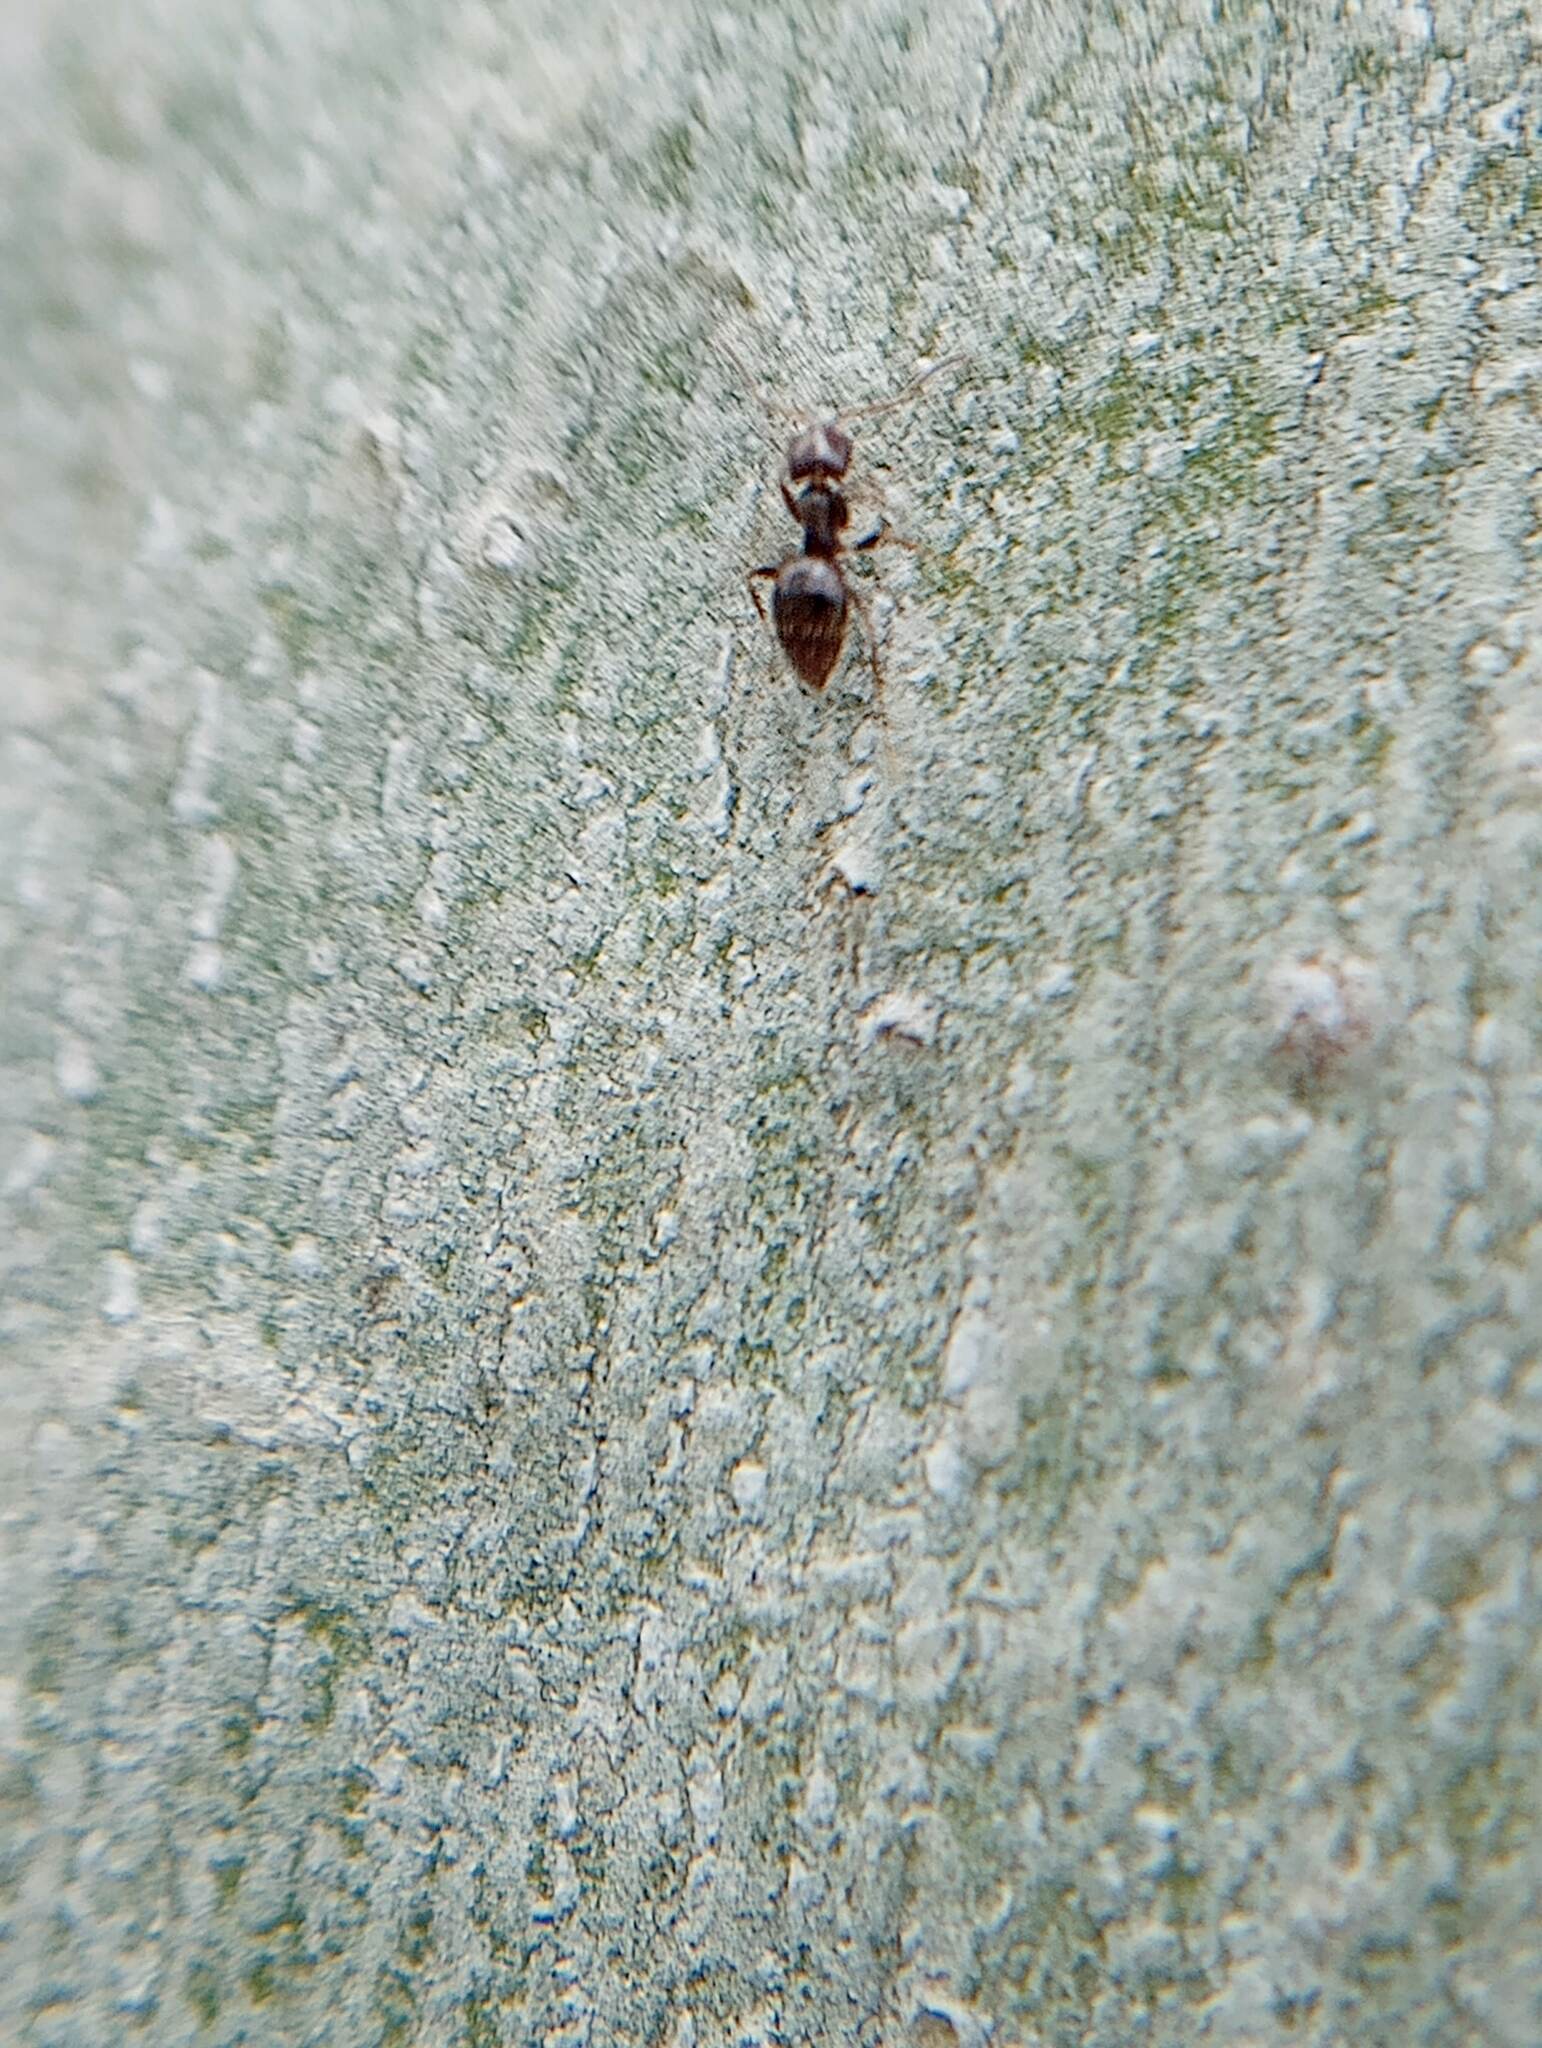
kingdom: Animalia
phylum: Arthropoda
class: Insecta
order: Hymenoptera
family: Formicidae
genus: Brachymyrmex
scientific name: Brachymyrmex patagonicus
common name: Dark rover ant
